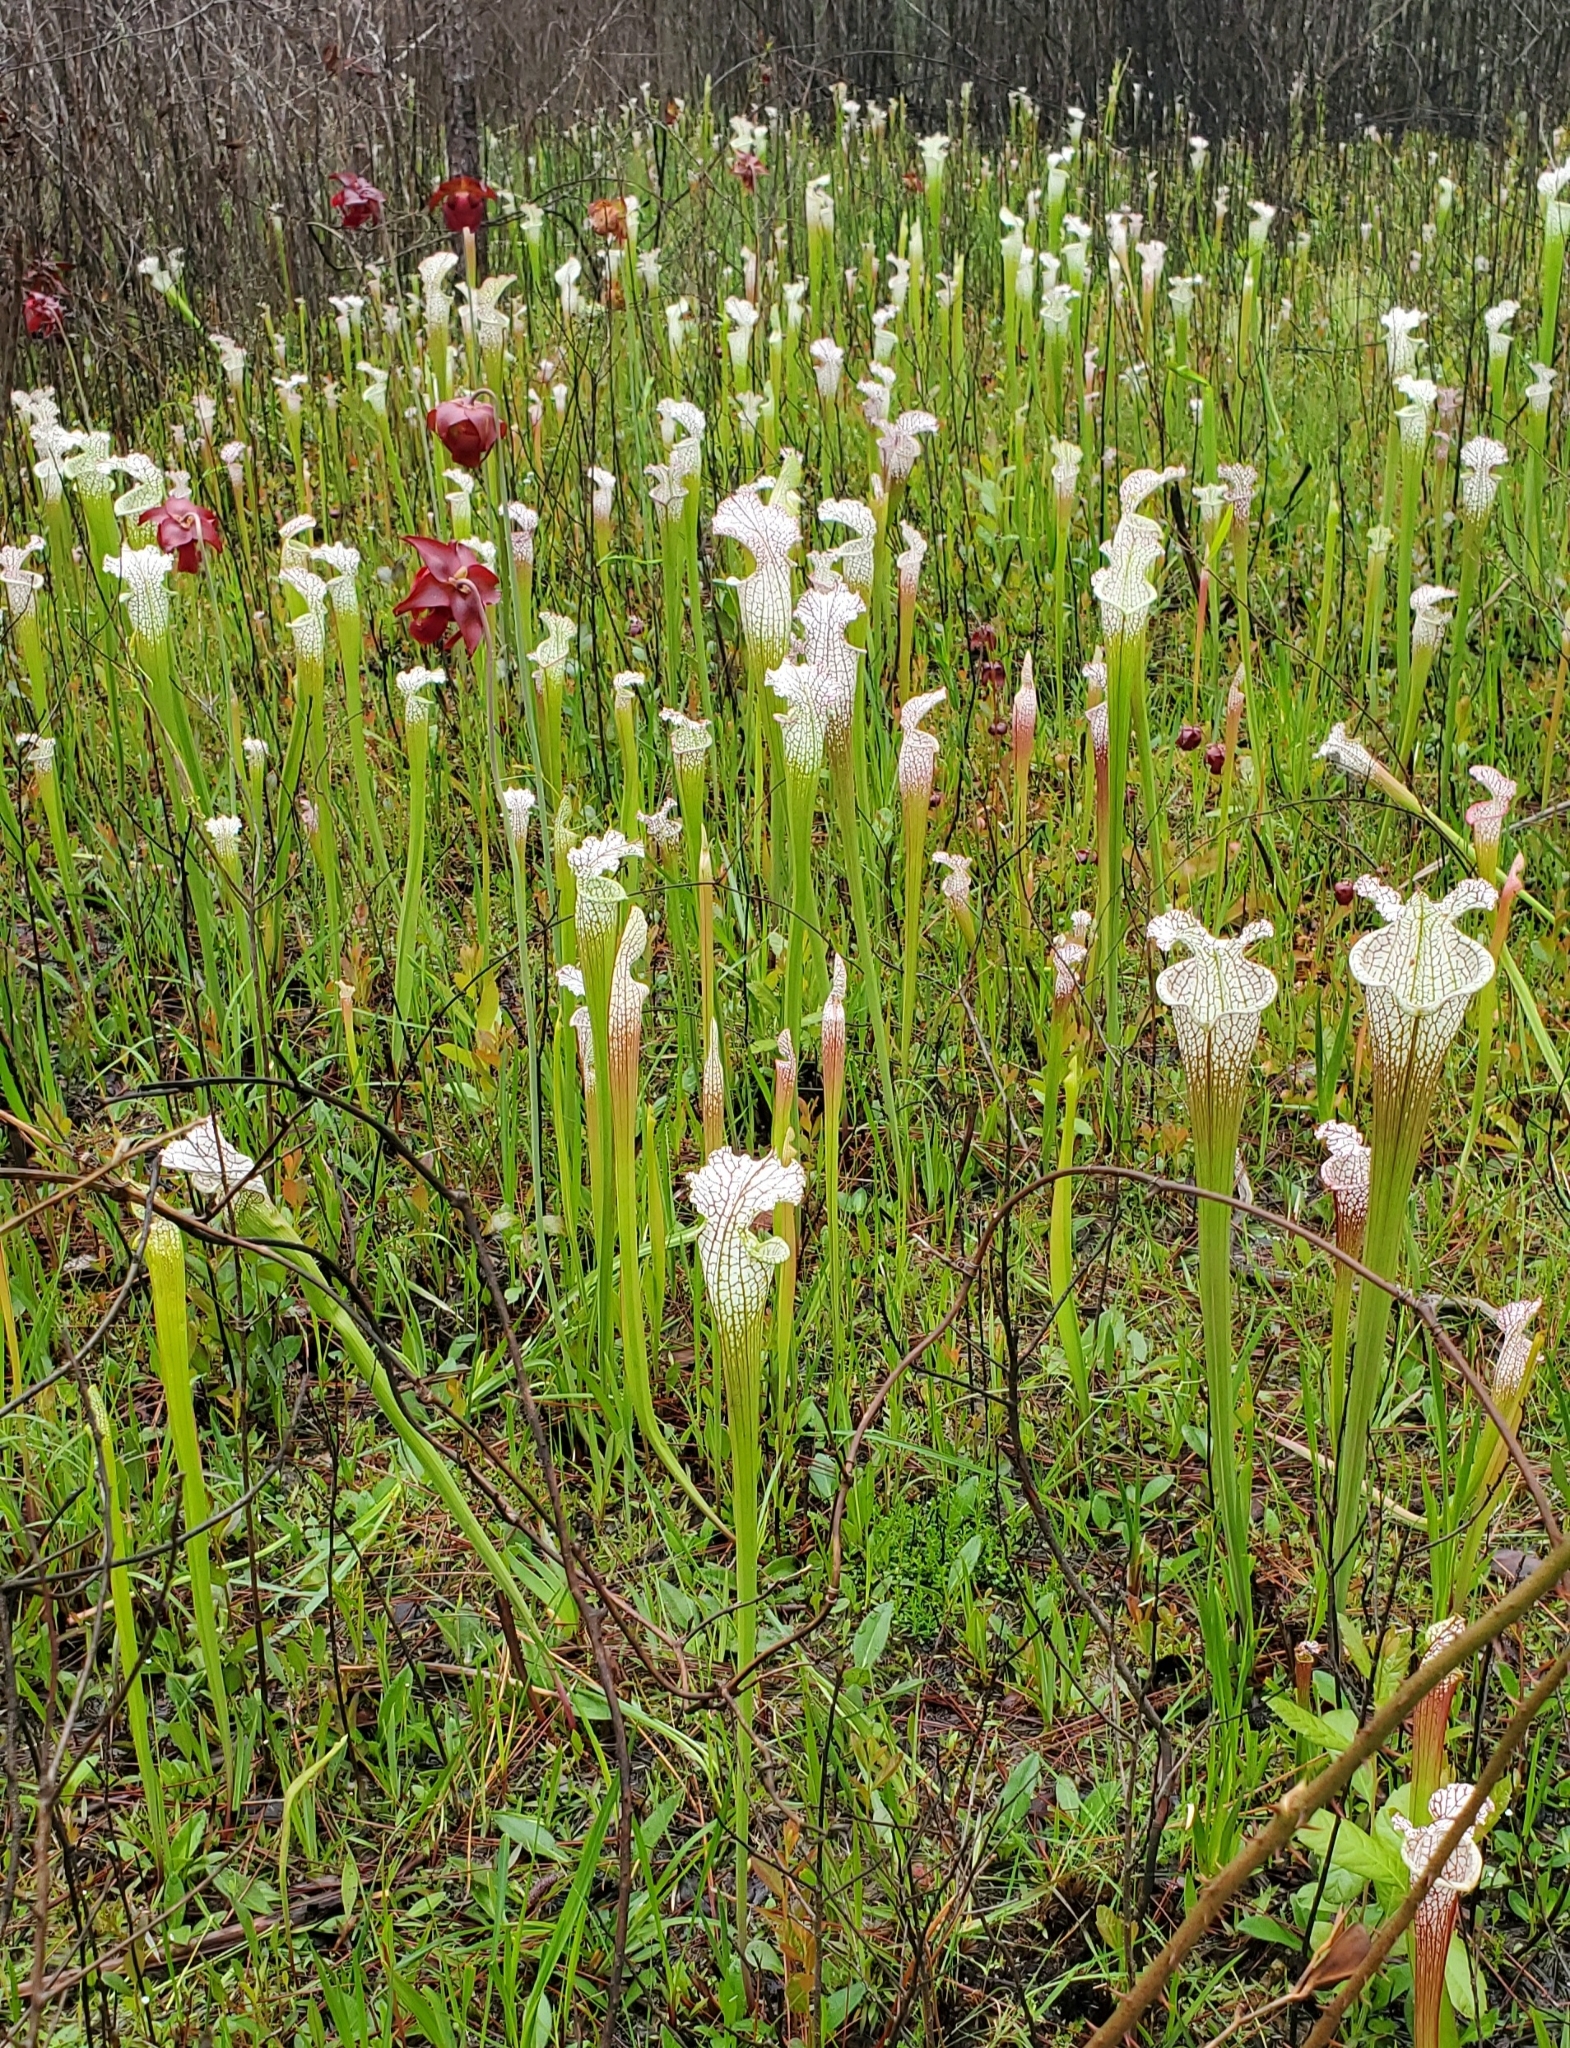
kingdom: Animalia
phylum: Arthropoda
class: Insecta
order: Lepidoptera
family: Noctuidae
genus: Exyra
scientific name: Exyra semicrocea
